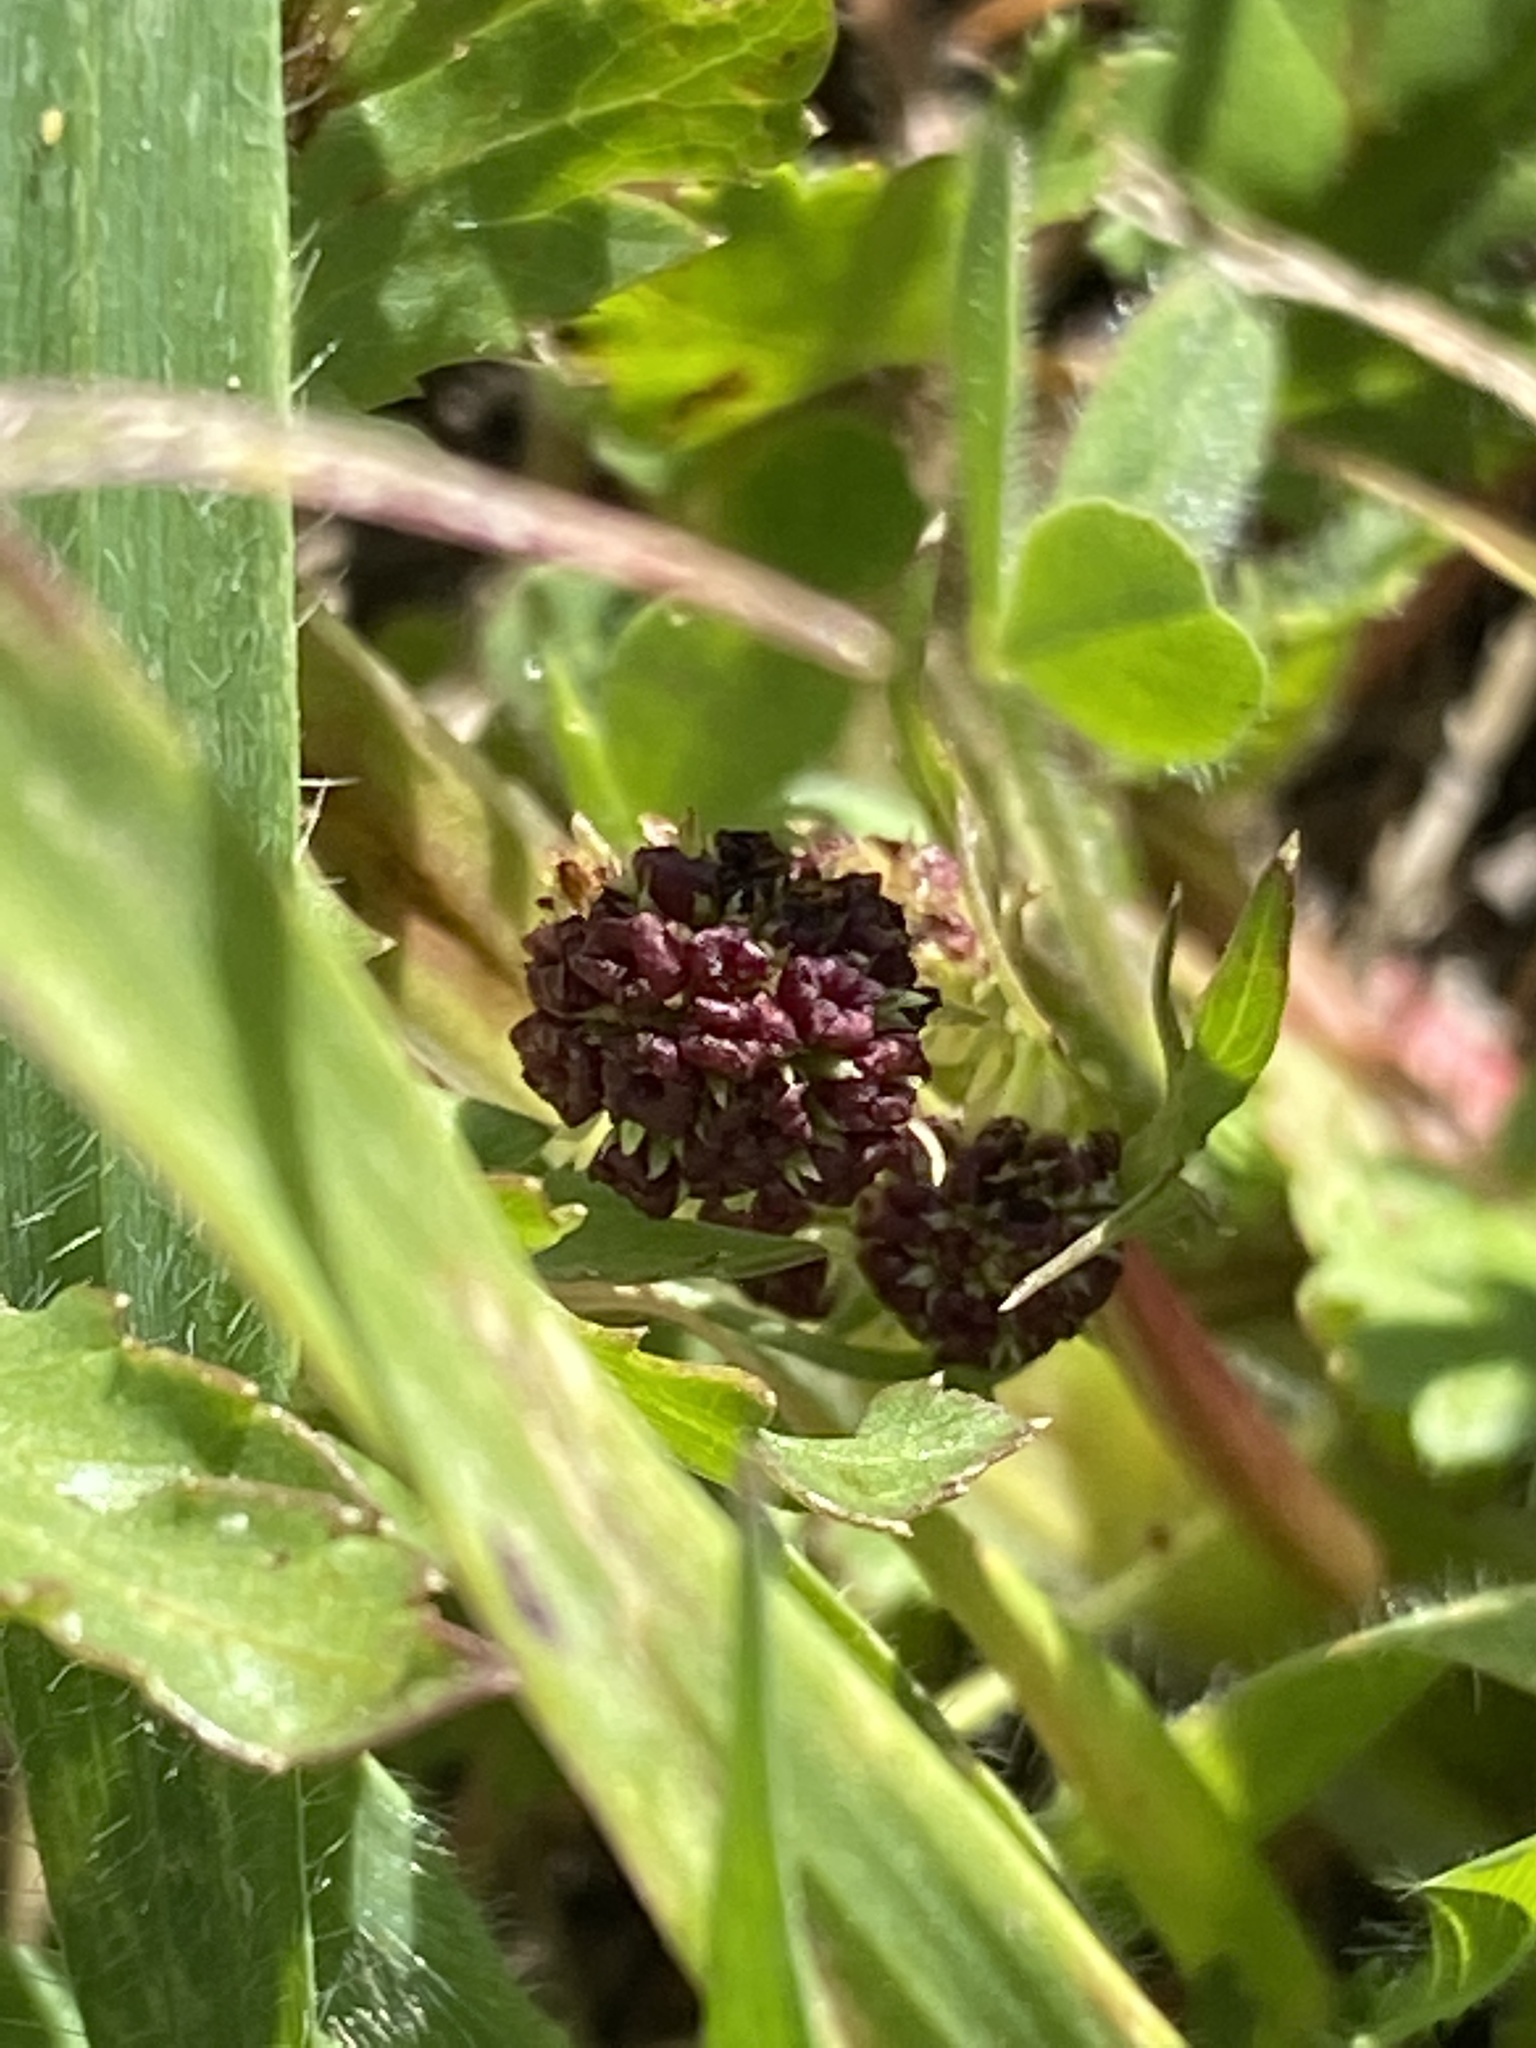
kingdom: Plantae
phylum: Tracheophyta
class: Magnoliopsida
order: Apiales
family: Apiaceae
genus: Sanicula
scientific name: Sanicula bipinnatifida
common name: Shoe-buttons
